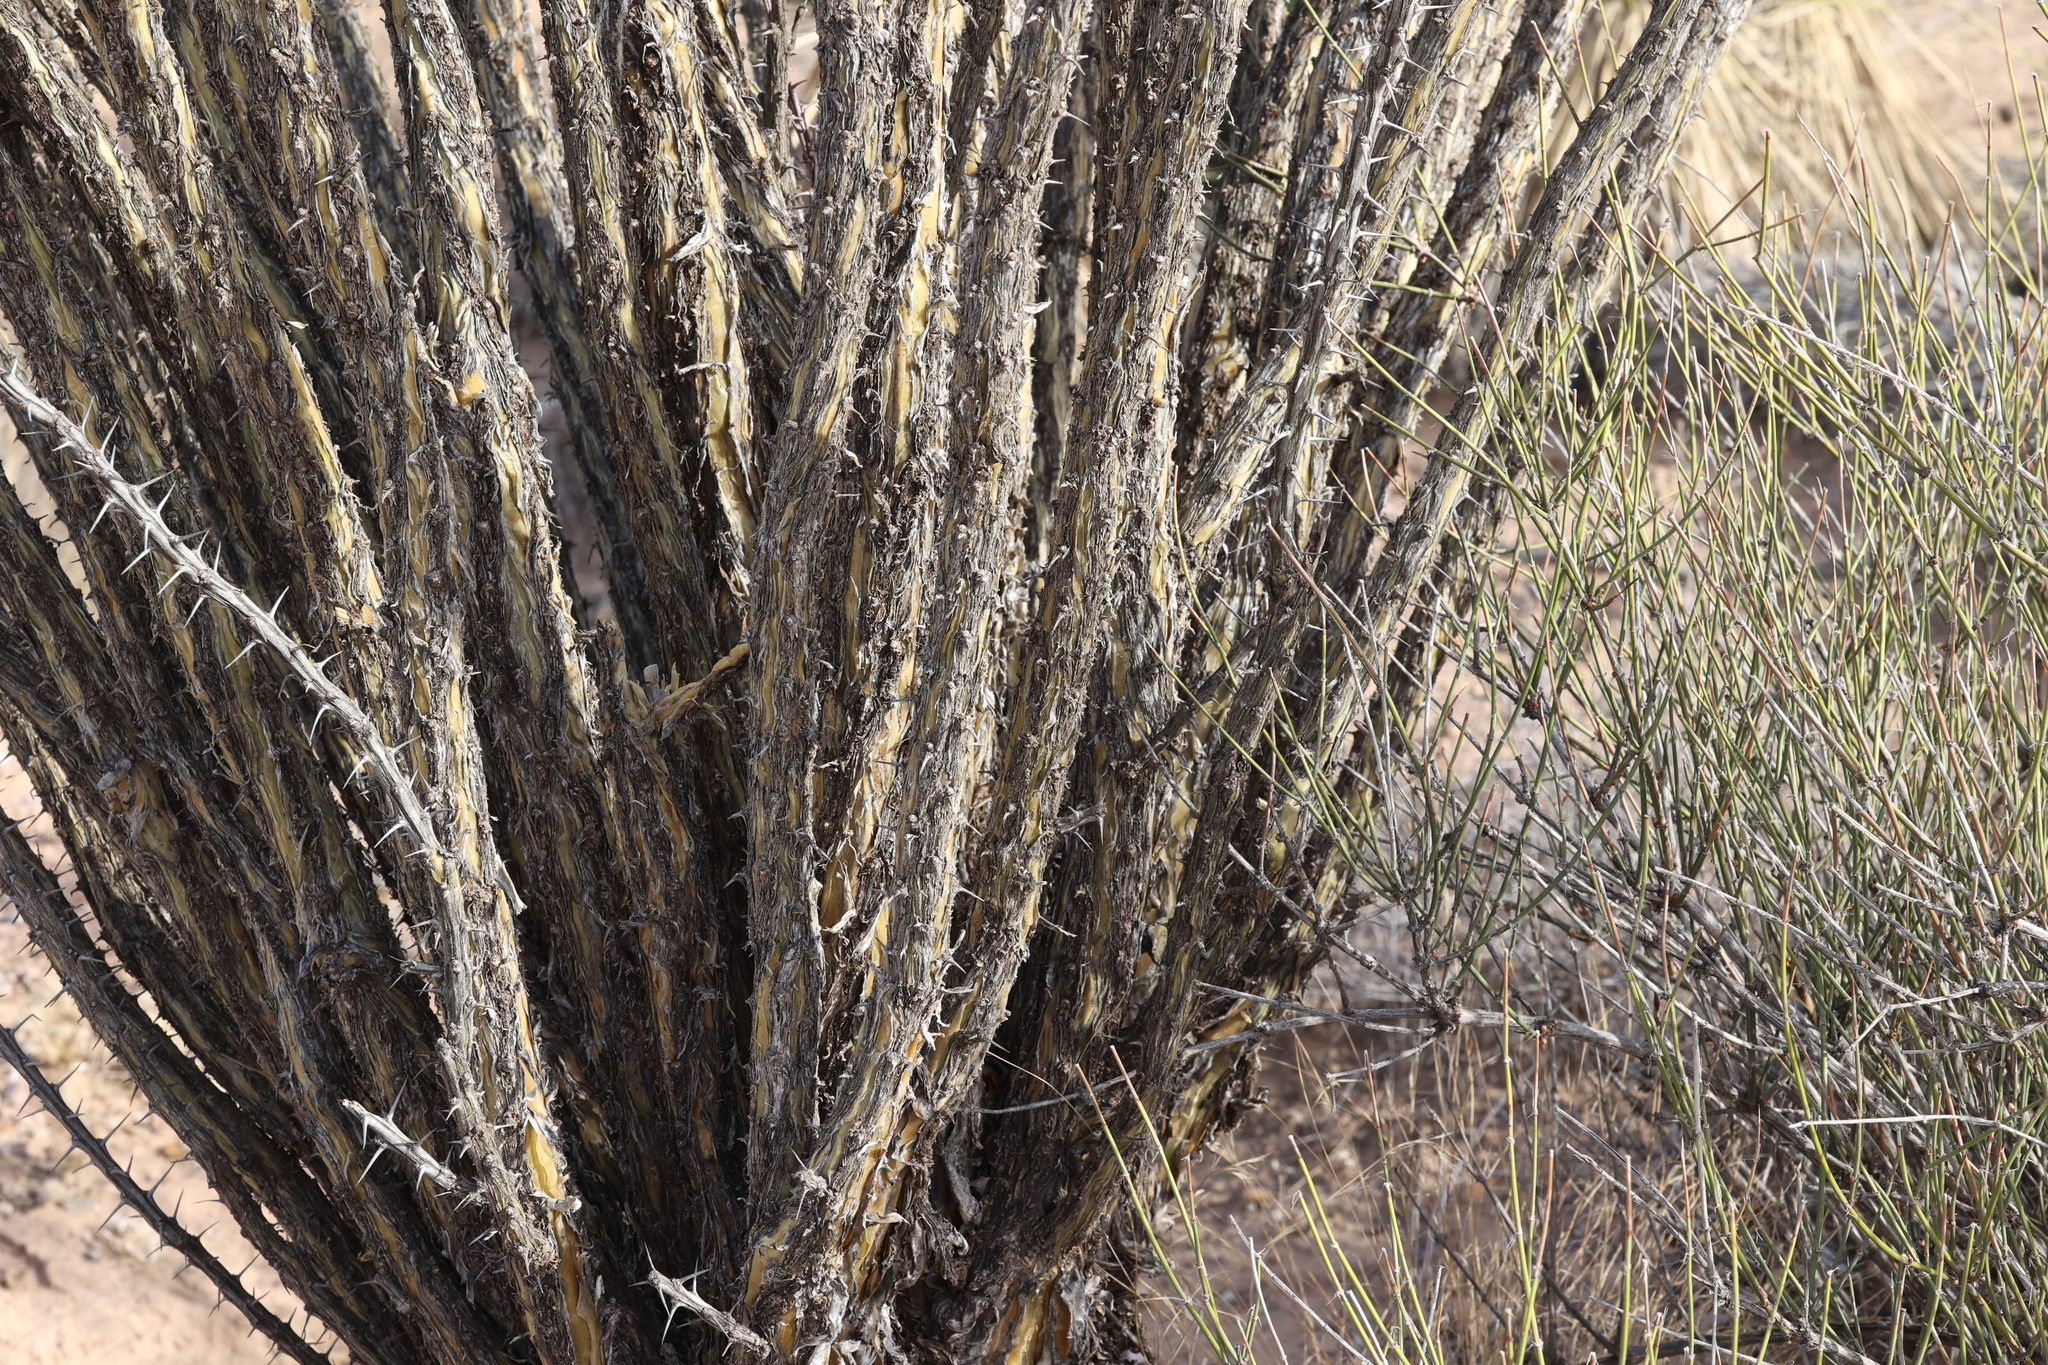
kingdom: Plantae
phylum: Tracheophyta
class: Magnoliopsida
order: Ericales
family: Fouquieriaceae
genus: Fouquieria
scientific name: Fouquieria splendens
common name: Vine-cactus
